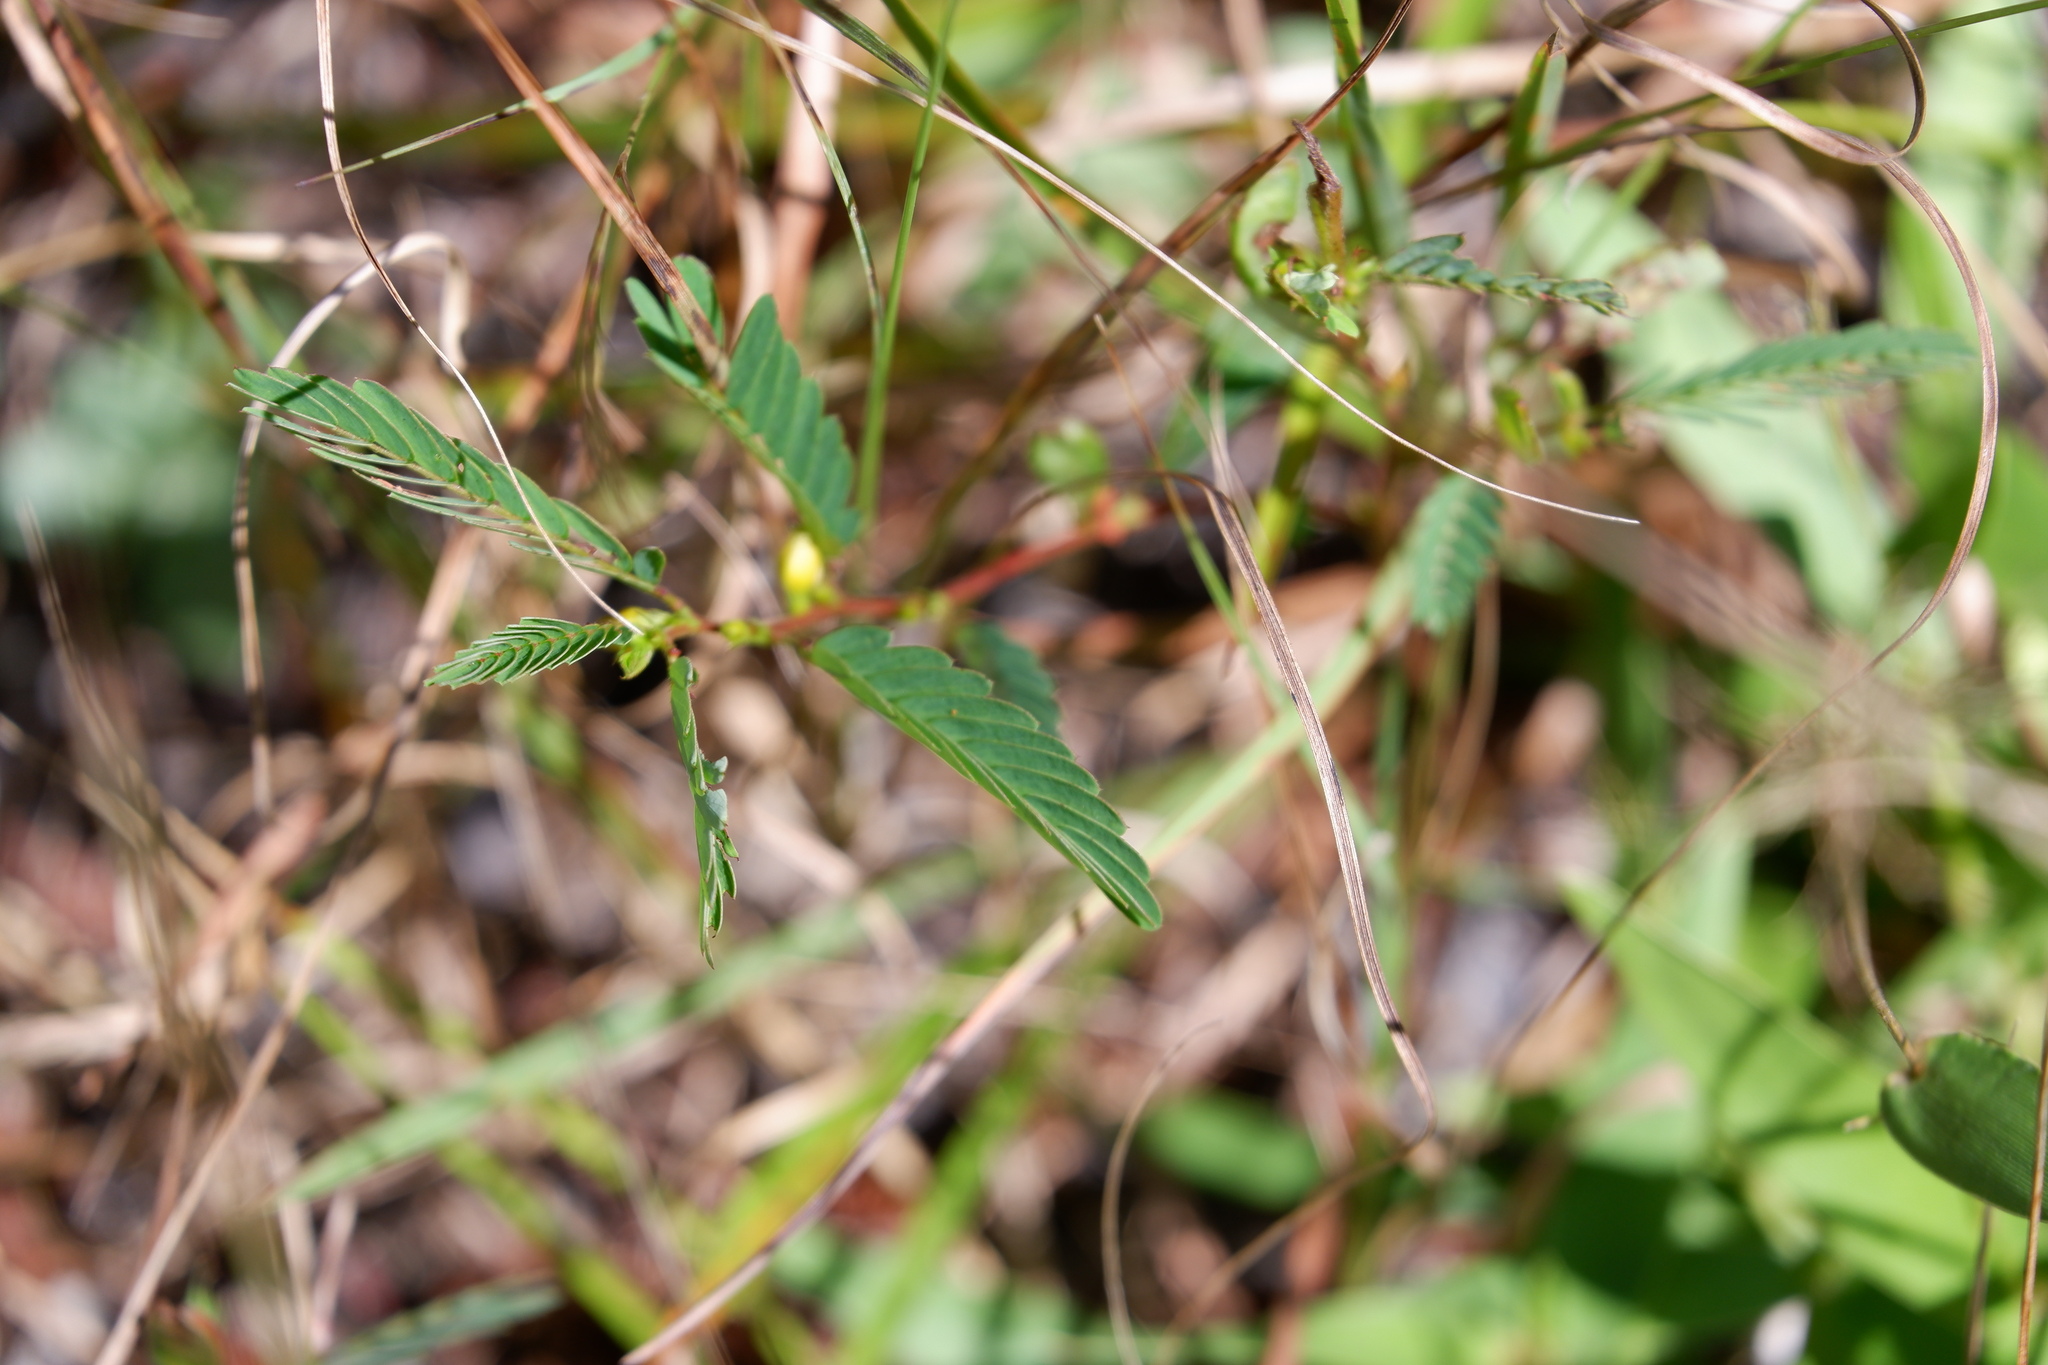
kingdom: Plantae
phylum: Tracheophyta
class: Magnoliopsida
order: Fabales
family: Fabaceae
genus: Chamaecrista
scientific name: Chamaecrista nictitans
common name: Sensitive cassia
